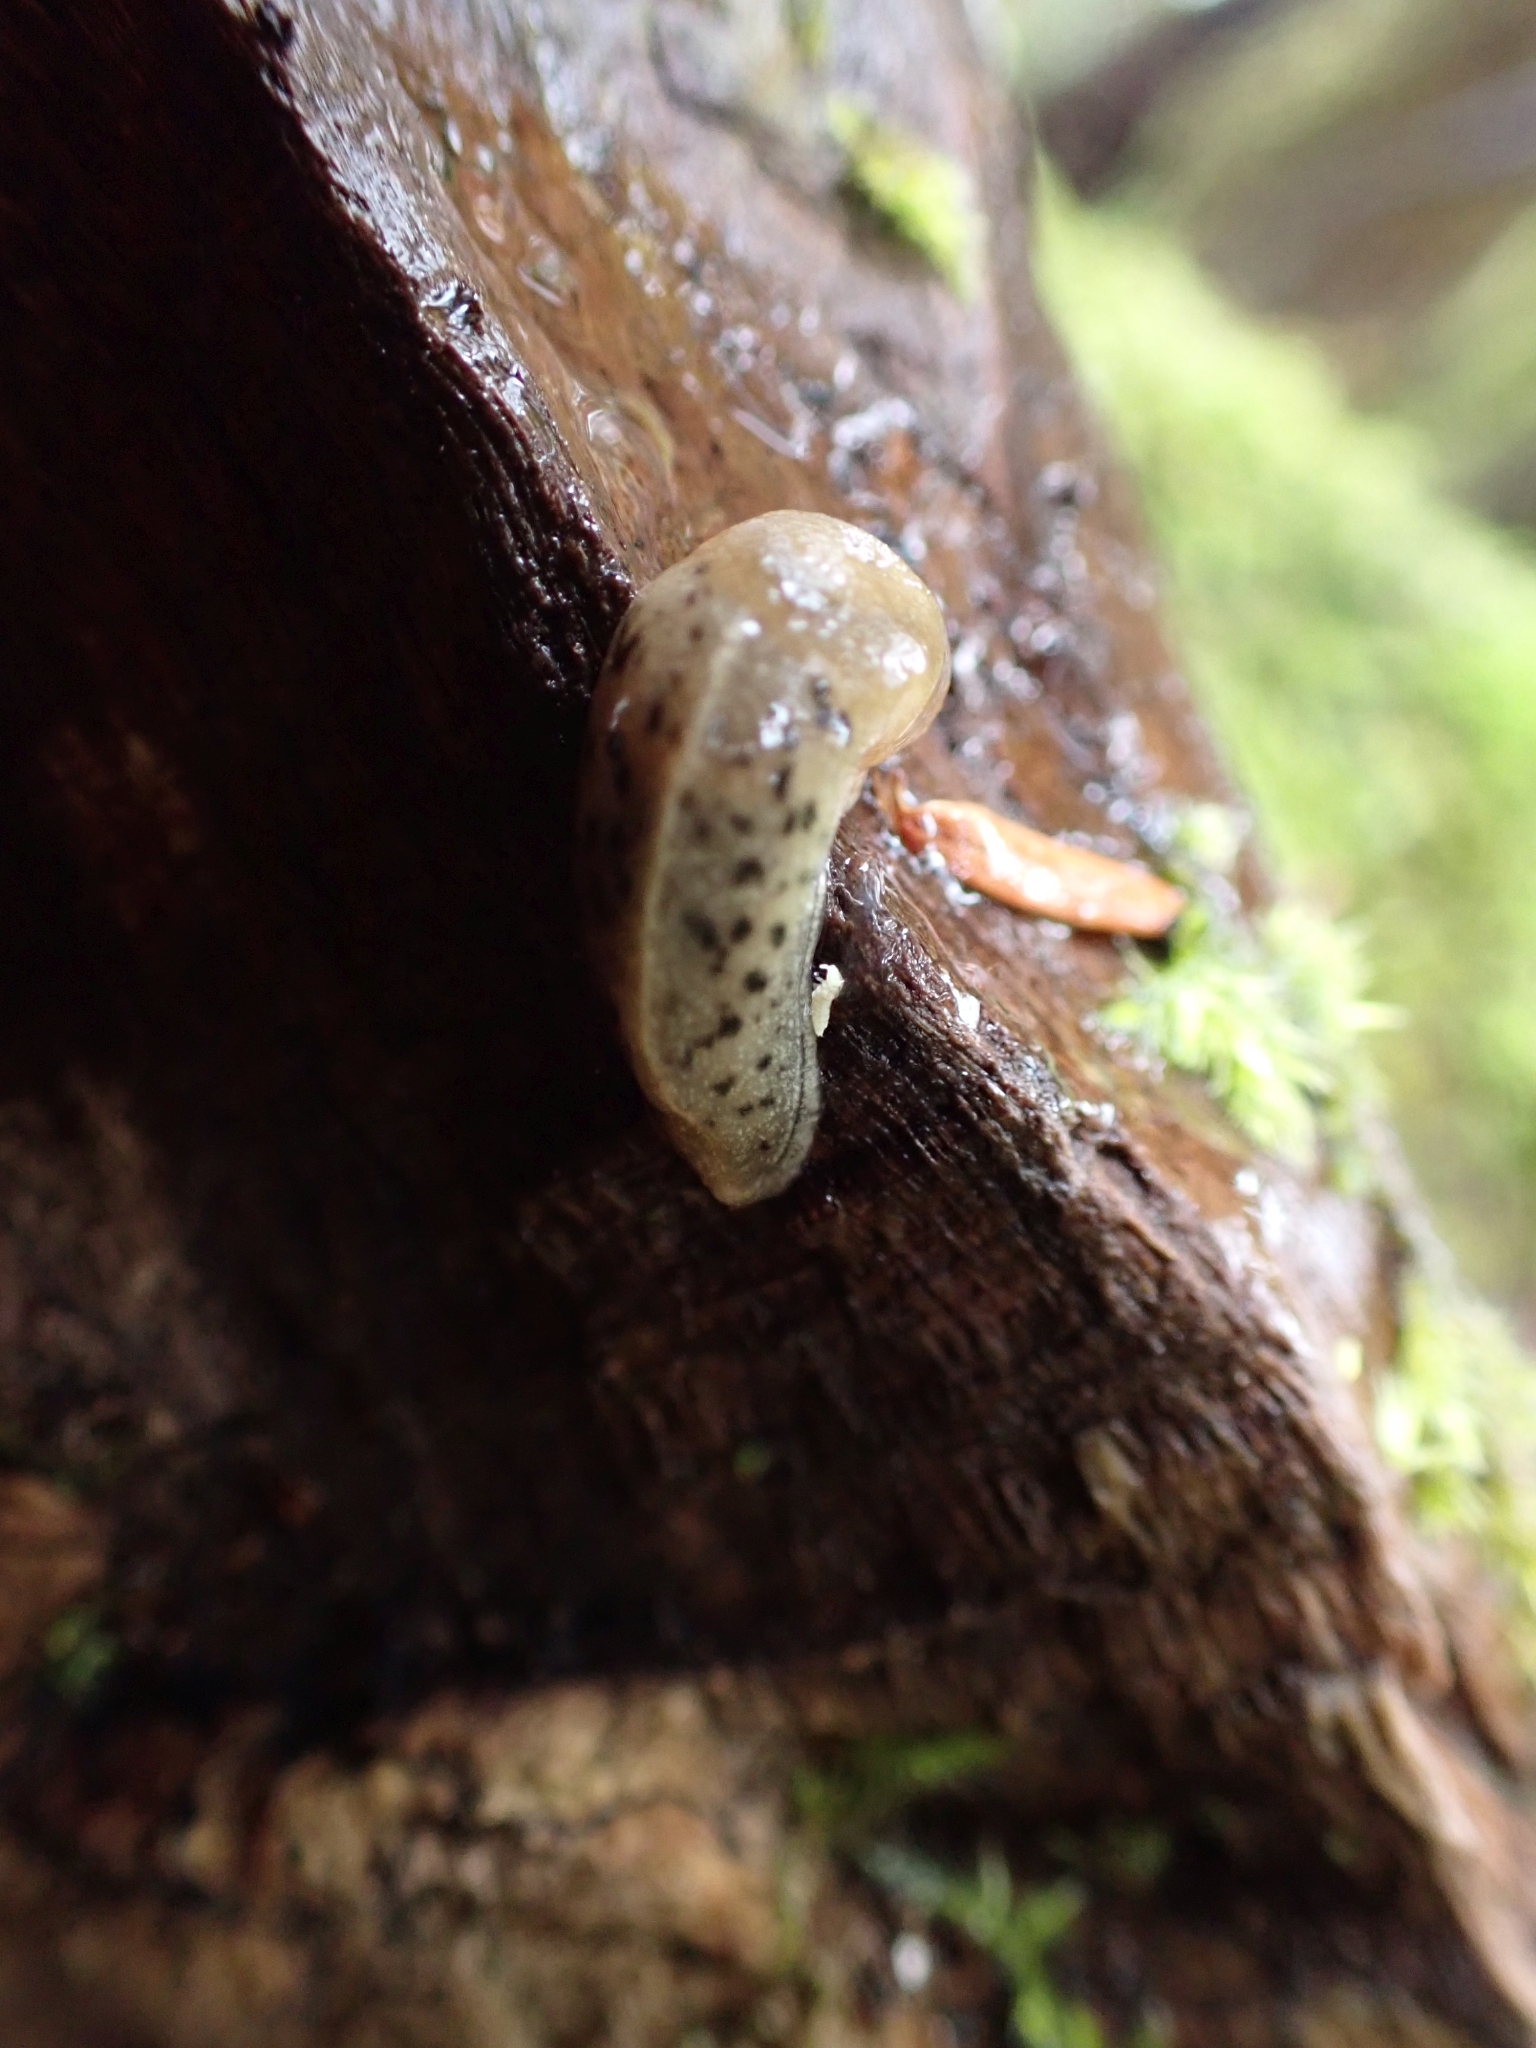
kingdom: Animalia
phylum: Mollusca
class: Gastropoda
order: Stylommatophora
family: Ariolimacidae
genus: Ariolimax
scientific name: Ariolimax columbianus
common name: Pacific banana slug
